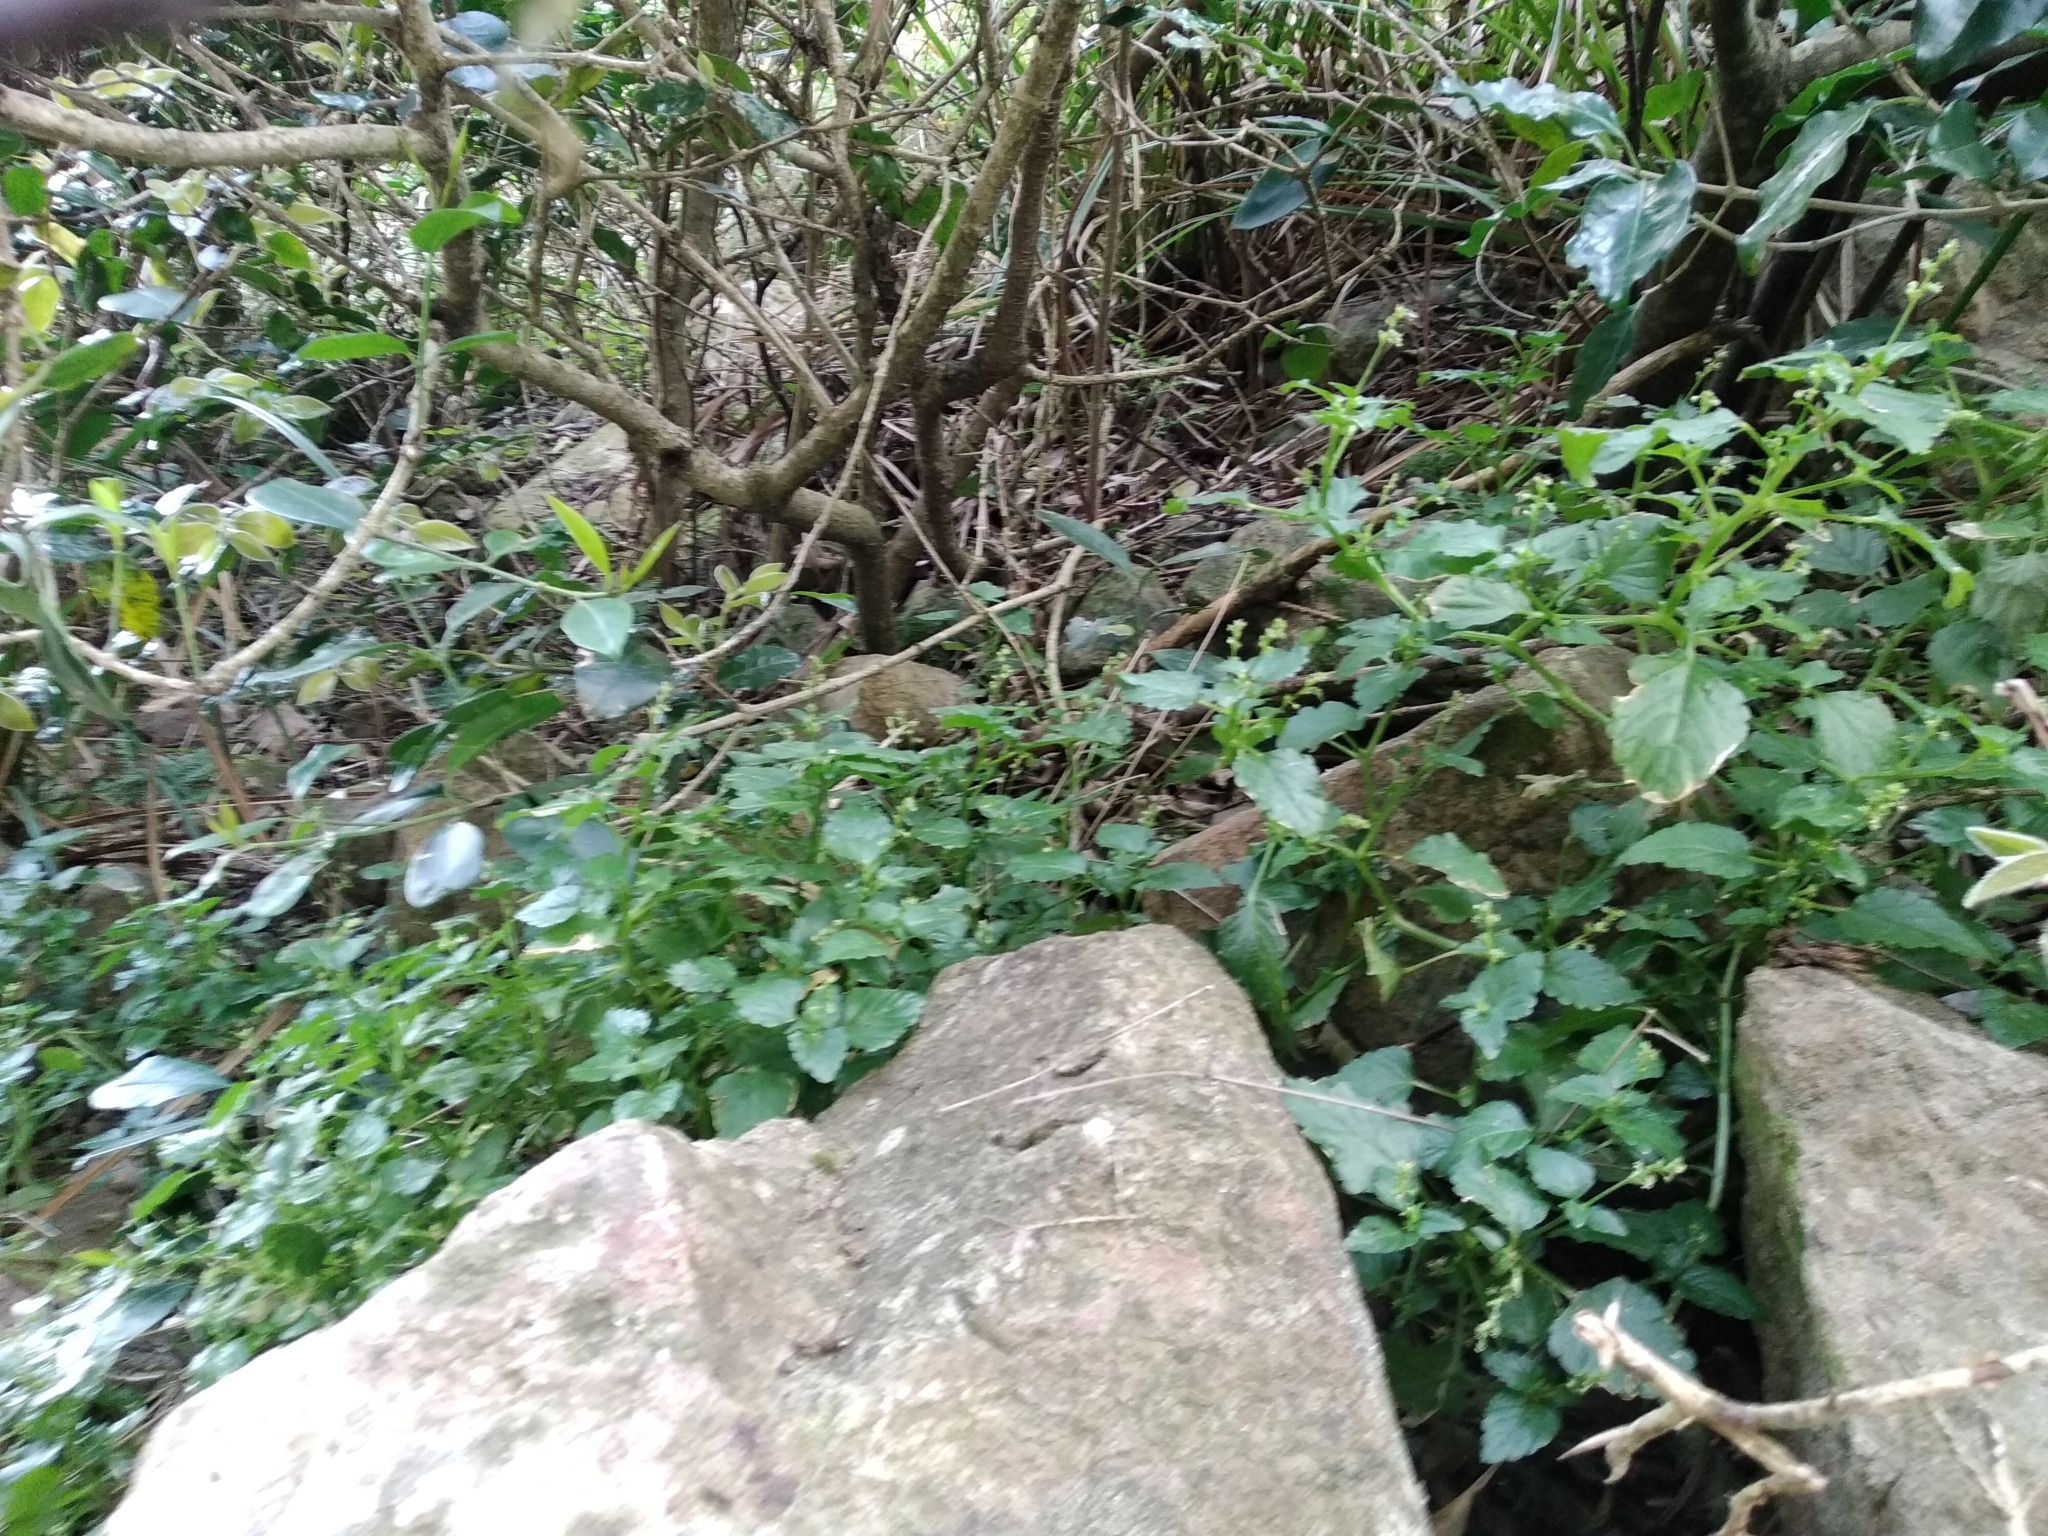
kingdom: Plantae
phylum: Tracheophyta
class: Magnoliopsida
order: Malpighiales
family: Euphorbiaceae
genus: Leidesia
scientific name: Leidesia procumbens
